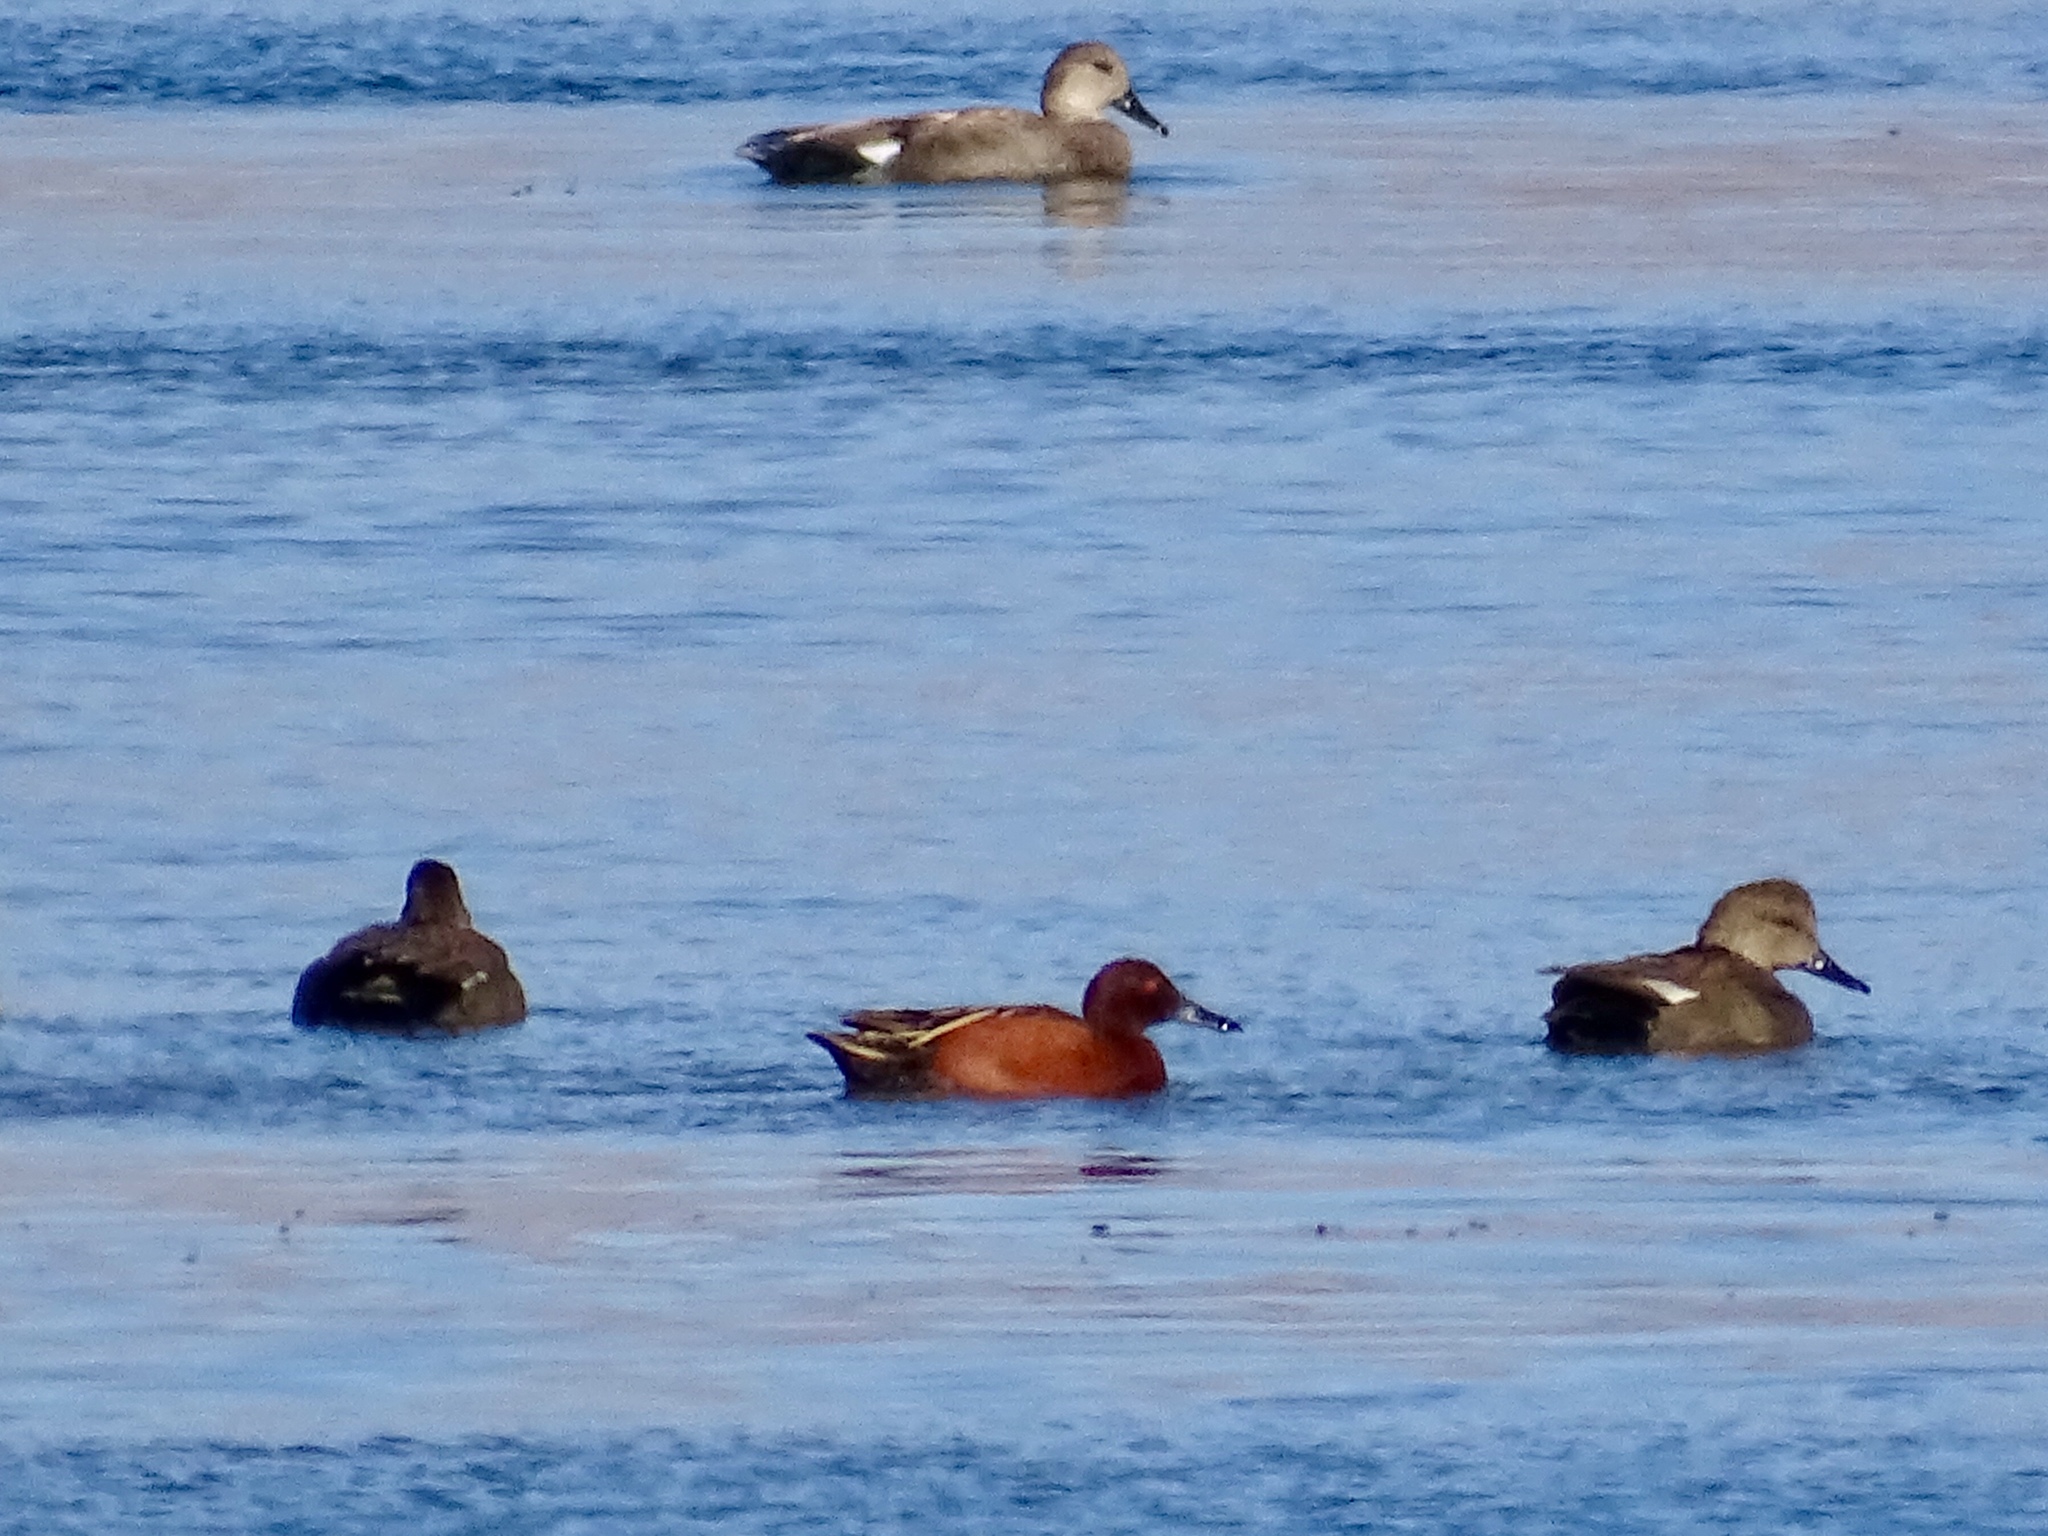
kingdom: Animalia
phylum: Chordata
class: Aves
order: Anseriformes
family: Anatidae
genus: Mareca
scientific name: Mareca strepera
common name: Gadwall
